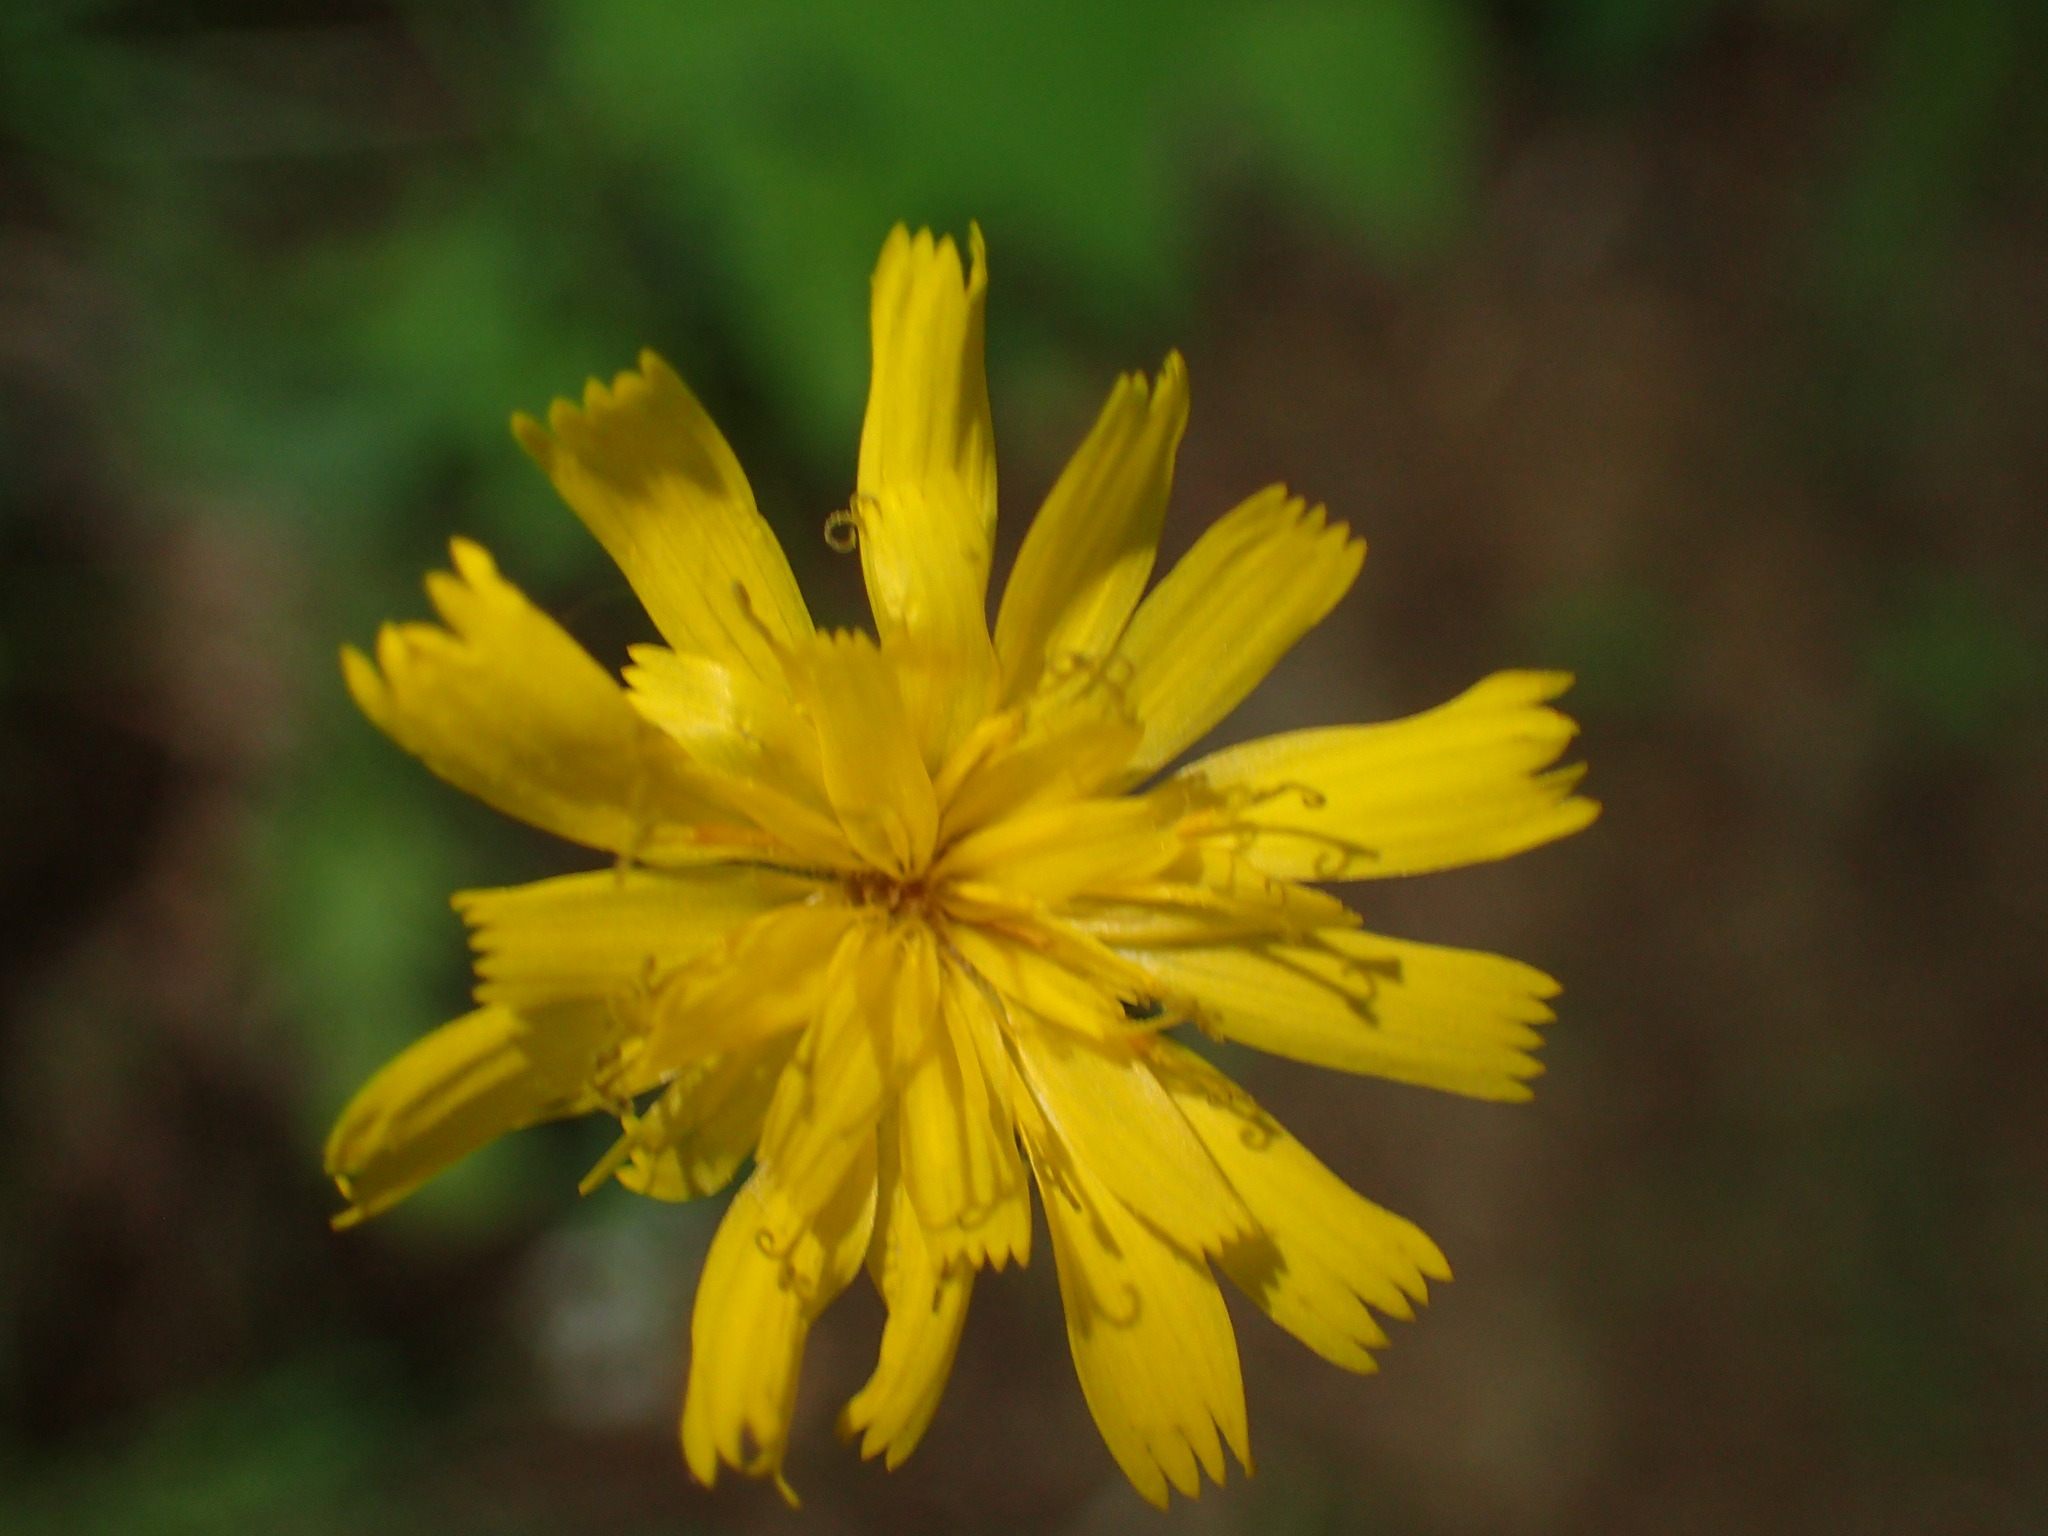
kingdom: Plantae
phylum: Tracheophyta
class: Magnoliopsida
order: Asterales
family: Asteraceae
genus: Hieracium
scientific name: Hieracium venosum
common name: Rattlesnake hawkweed
